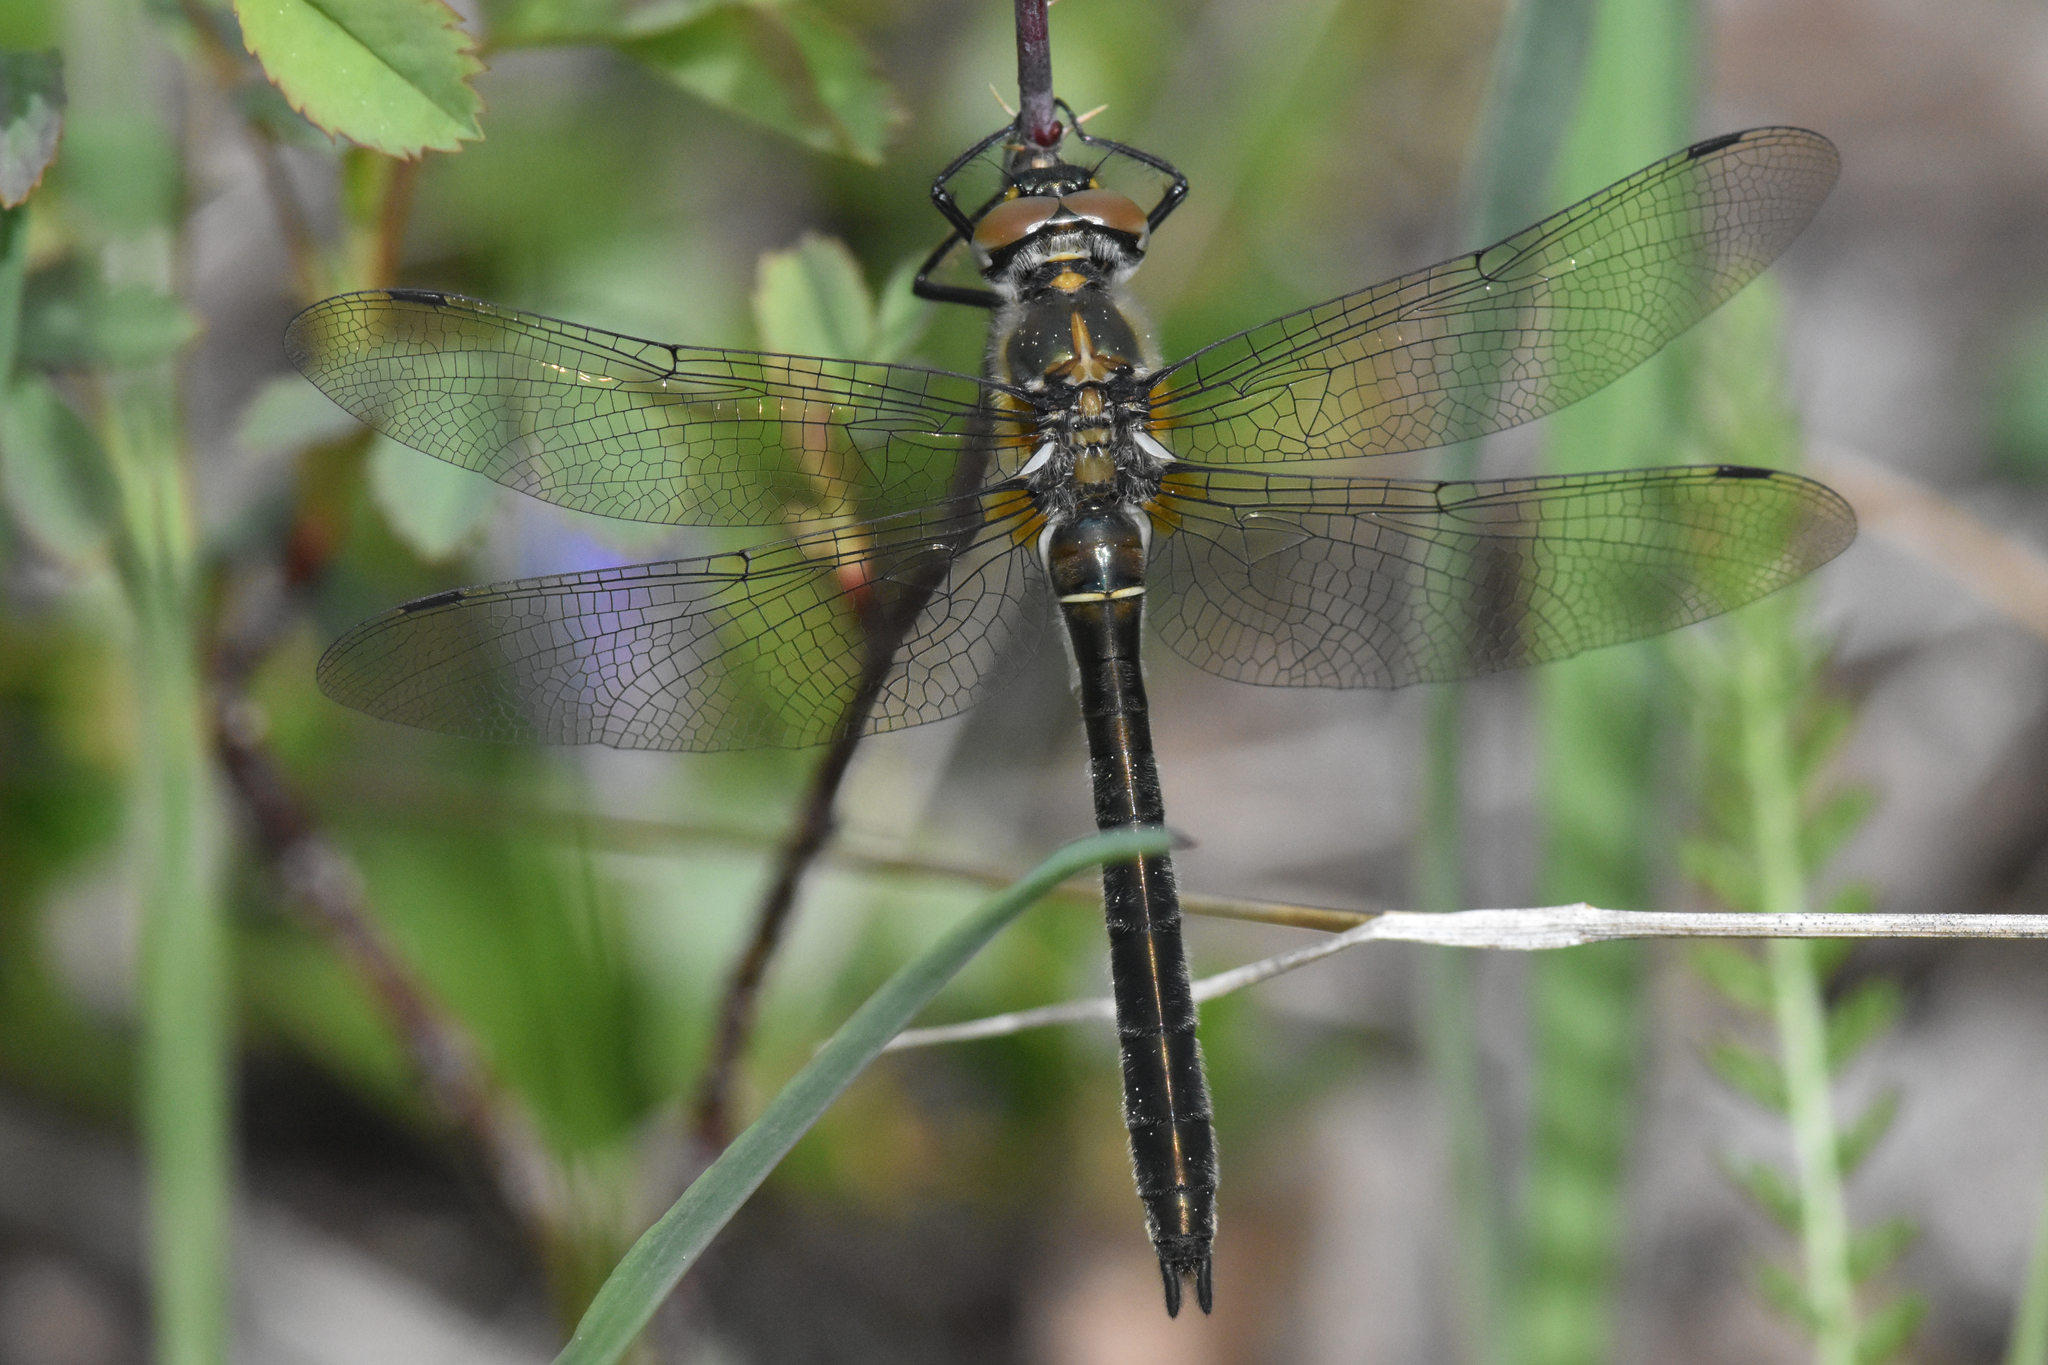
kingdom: Animalia
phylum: Arthropoda
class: Insecta
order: Odonata
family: Corduliidae
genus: Cordulia
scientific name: Cordulia shurtleffii
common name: American emerald
